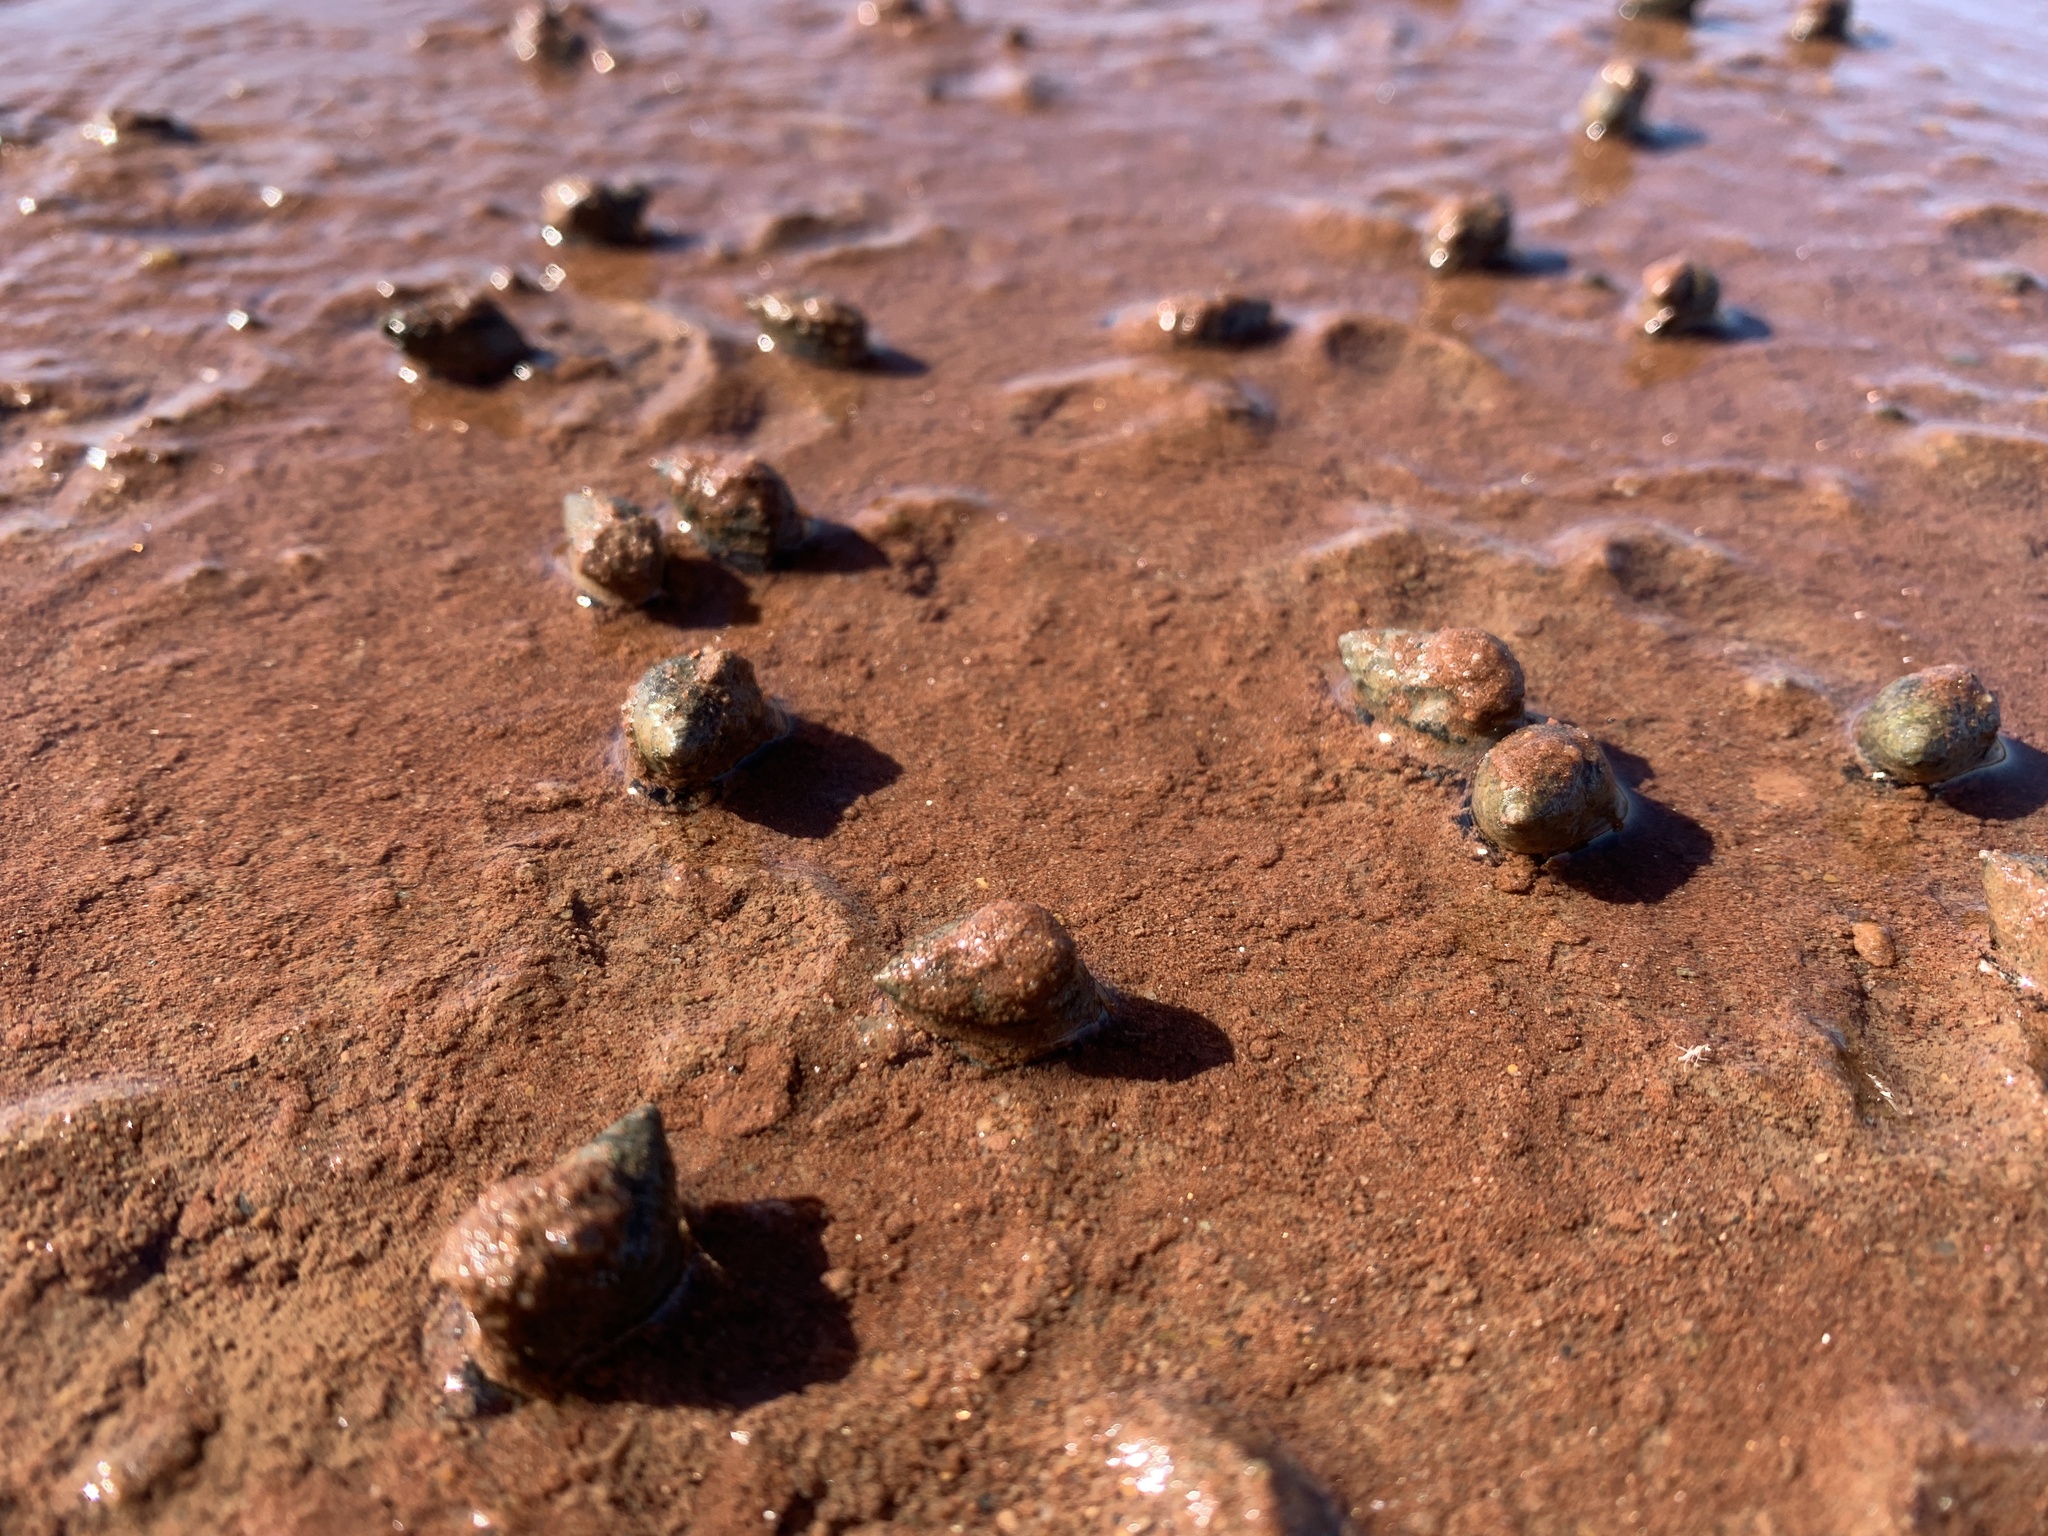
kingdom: Animalia
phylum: Mollusca
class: Gastropoda
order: Neogastropoda
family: Nassariidae
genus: Ilyanassa
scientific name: Ilyanassa obsoleta
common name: Eastern mudsnail
